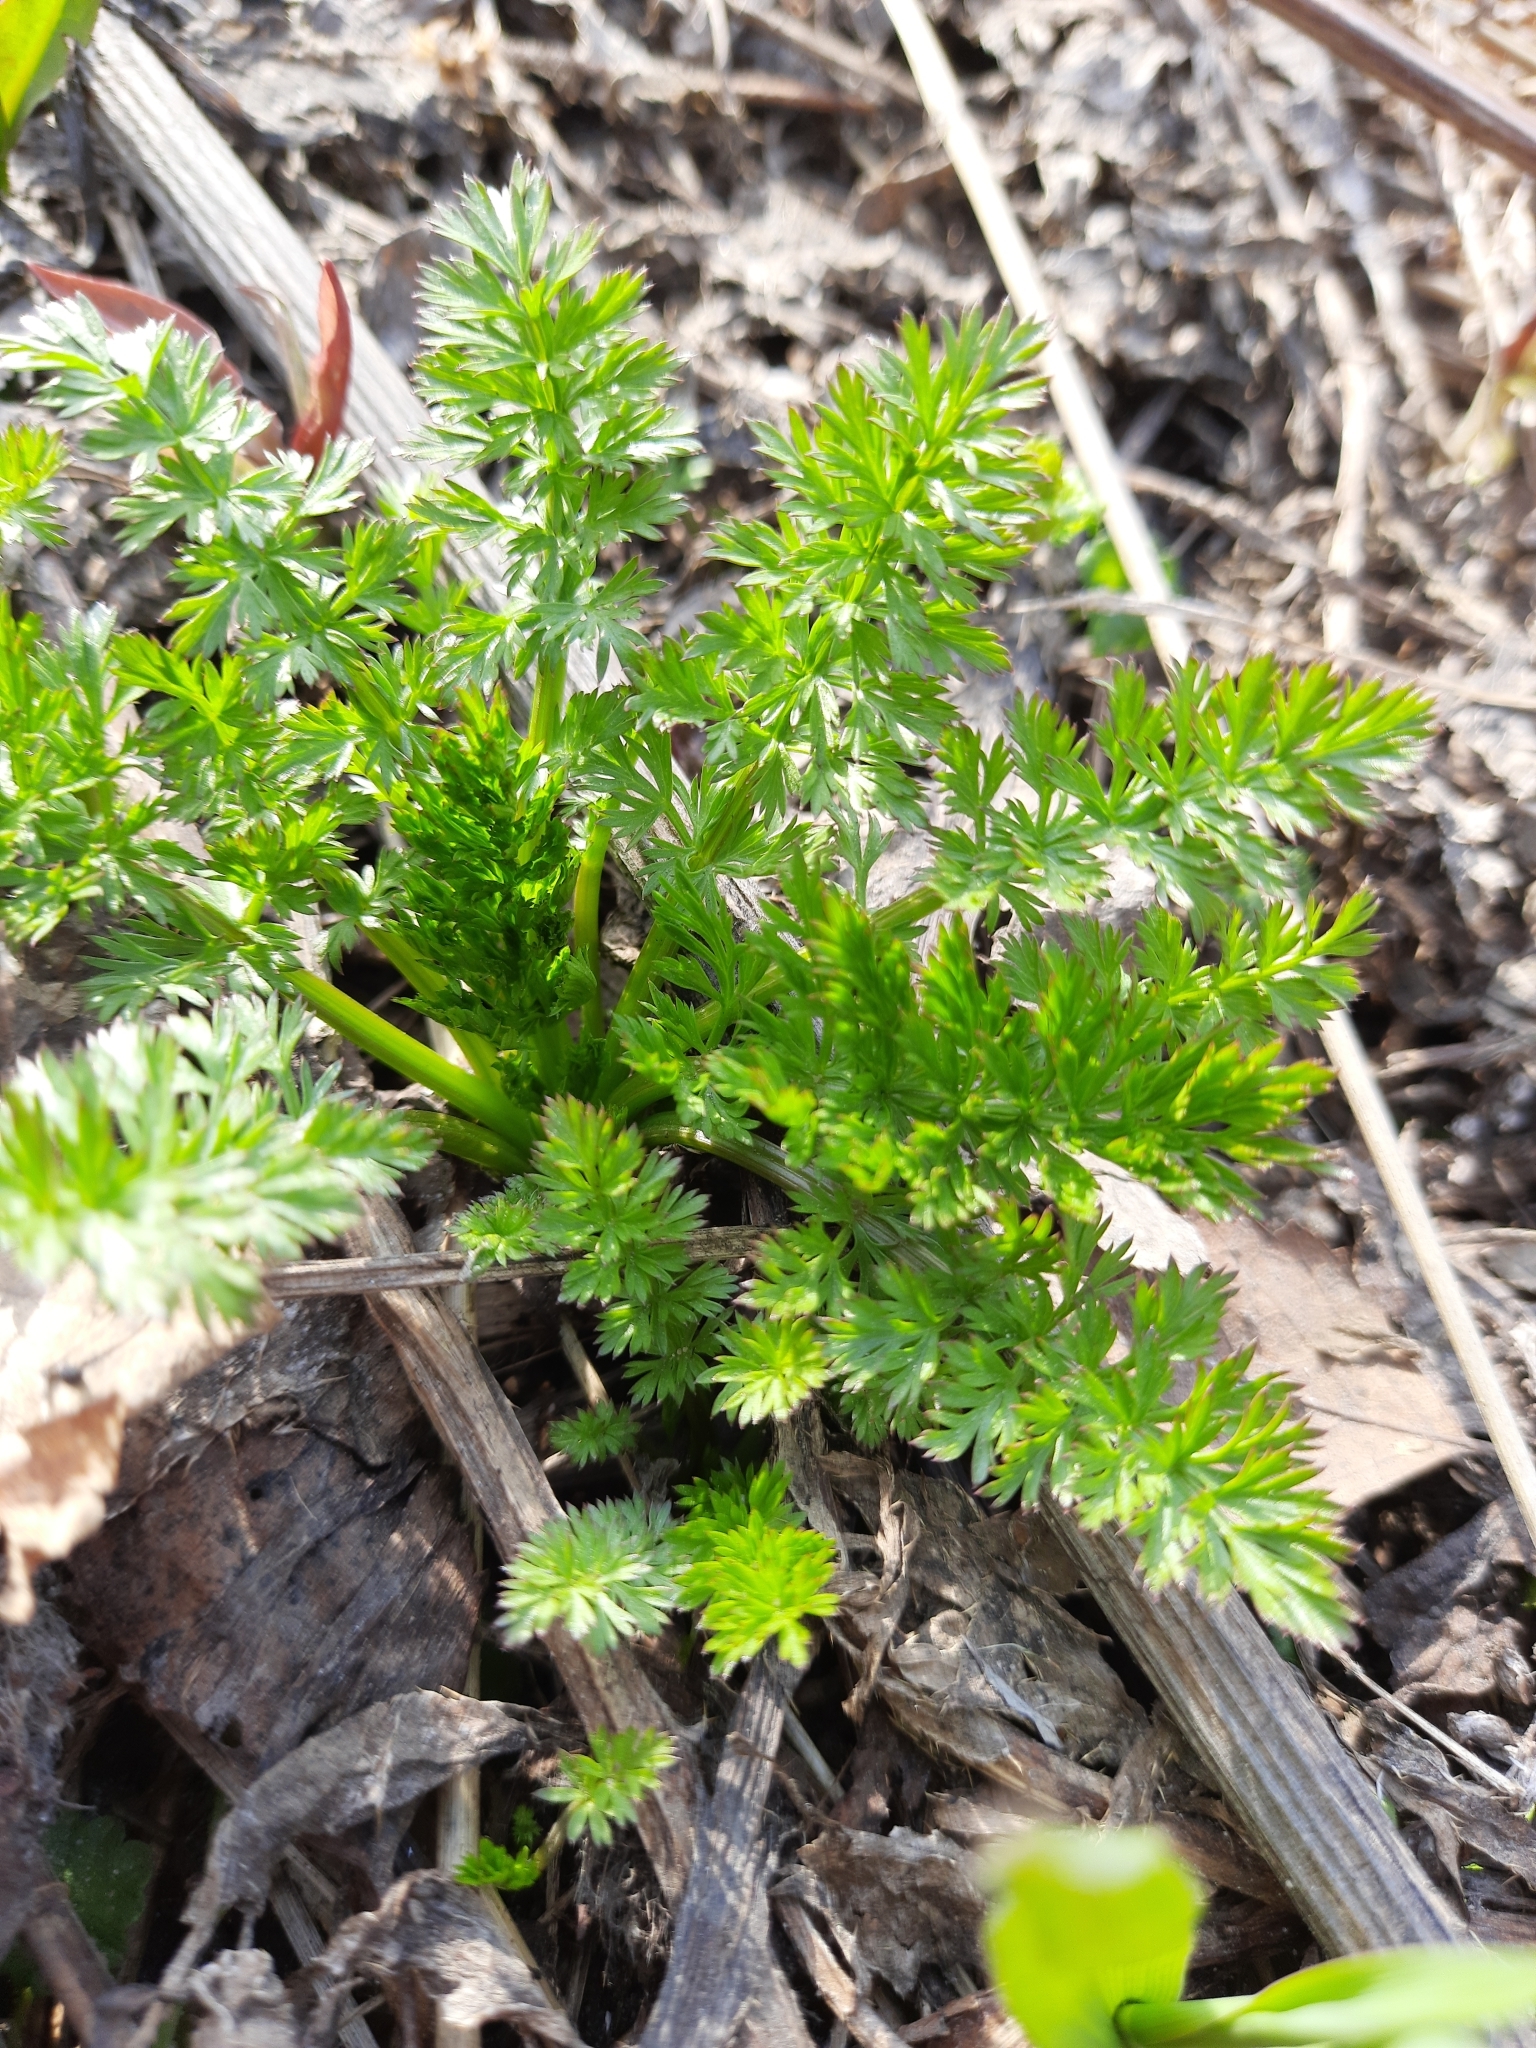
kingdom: Plantae
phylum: Tracheophyta
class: Magnoliopsida
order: Apiales
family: Apiaceae
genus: Carum
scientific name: Carum carvi
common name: Caraway
